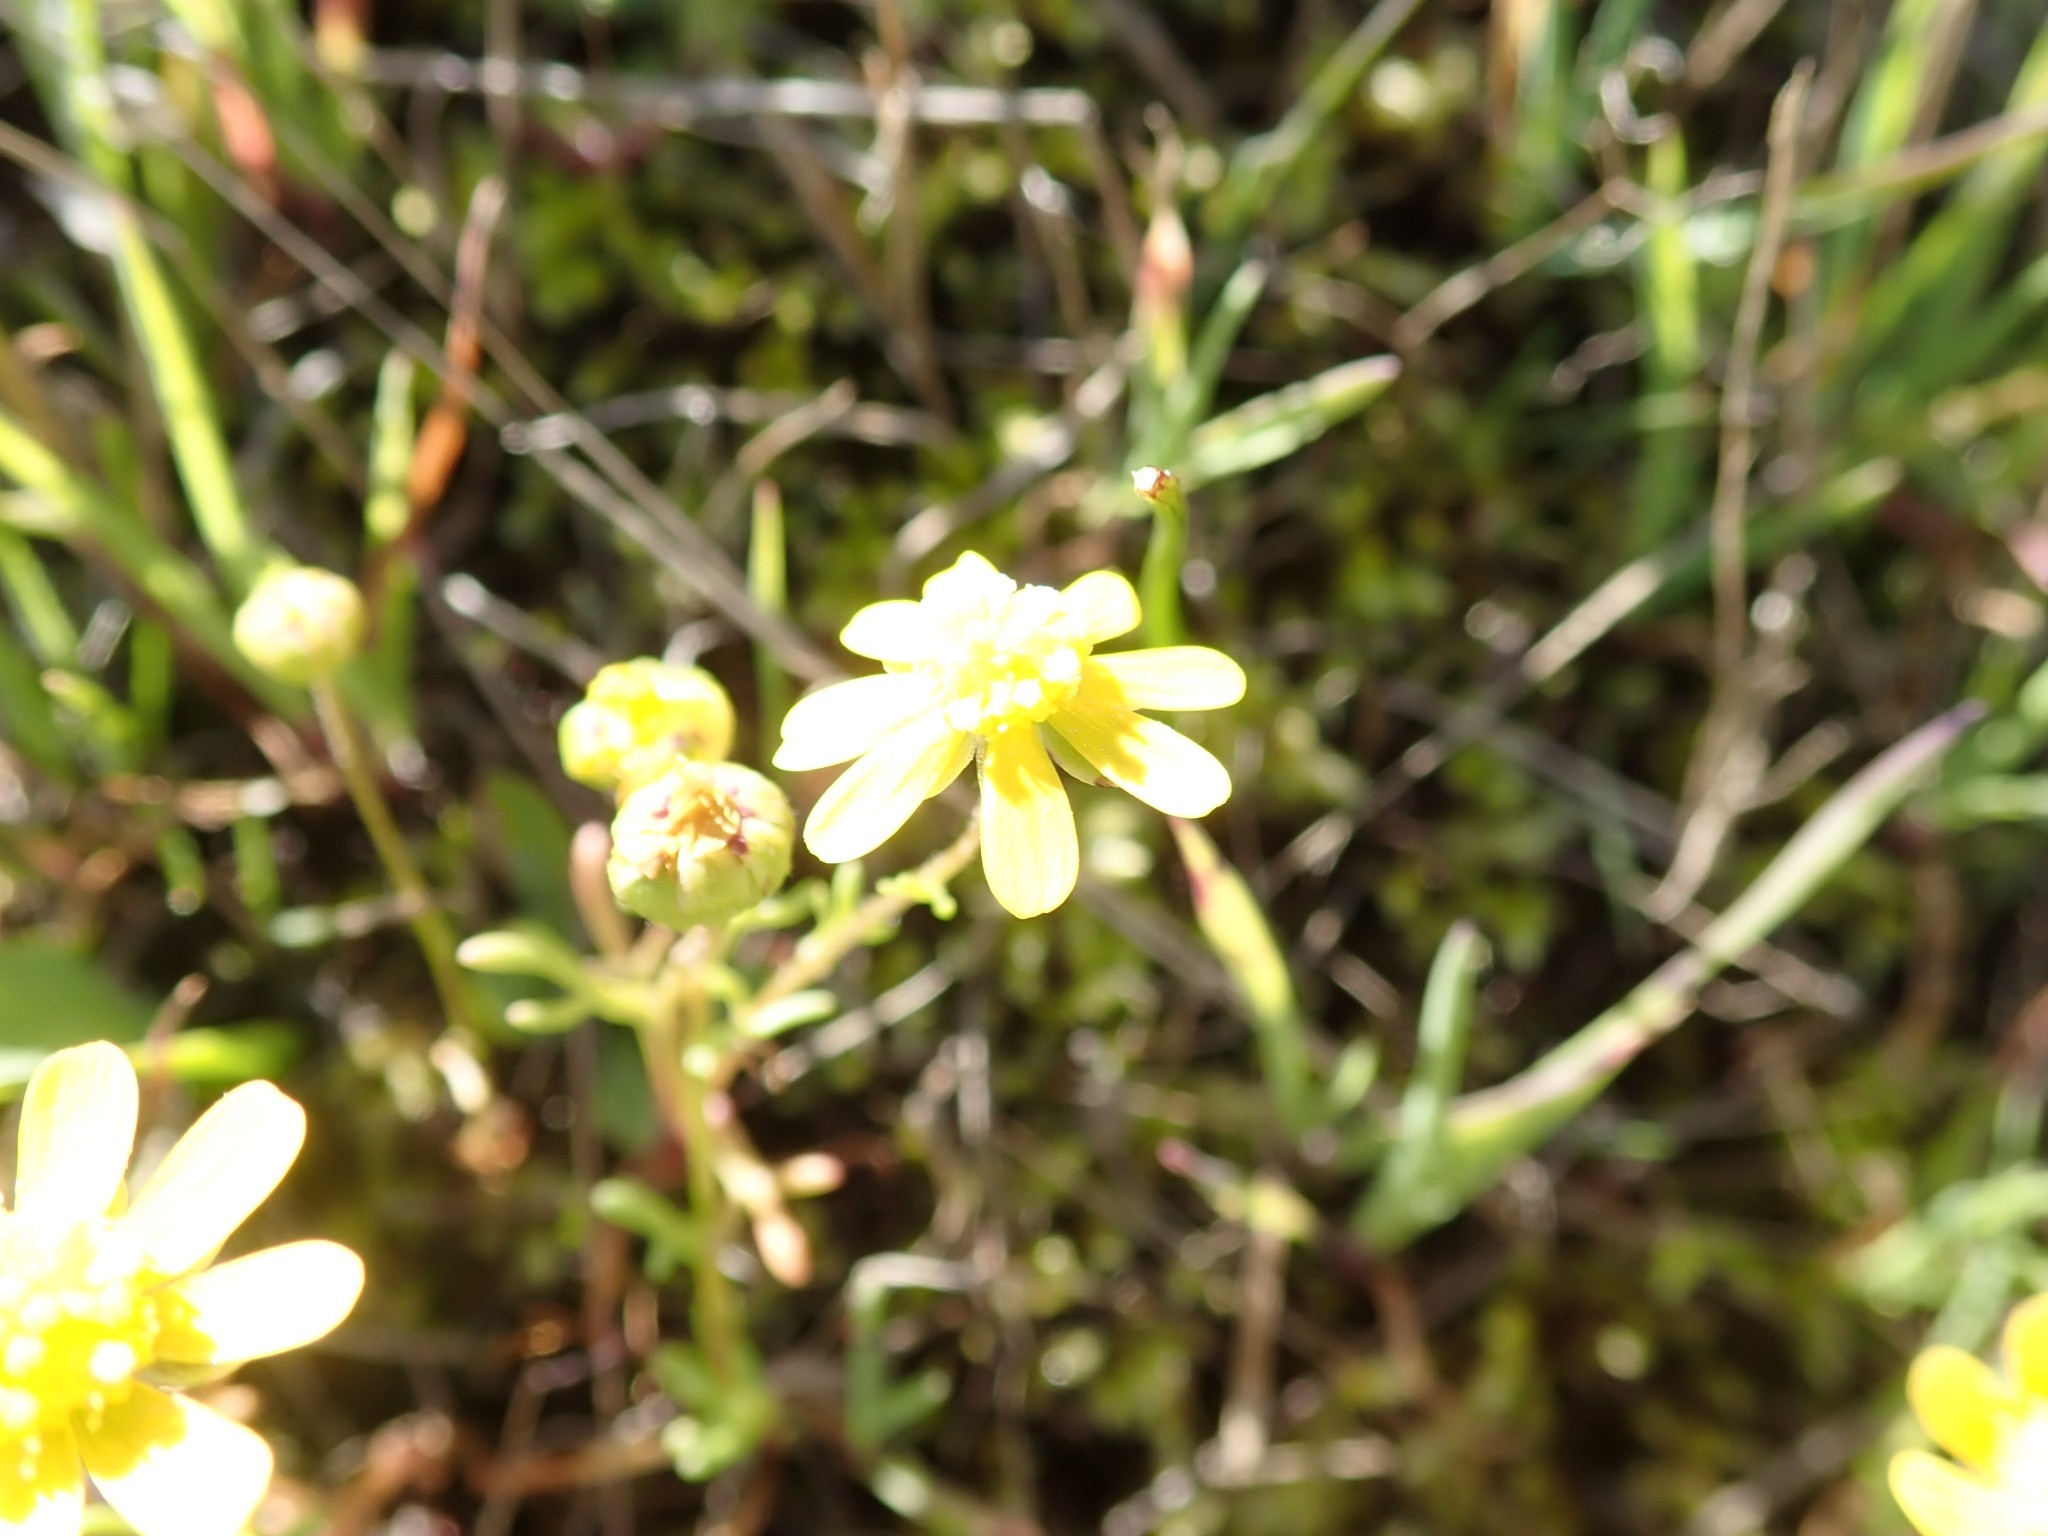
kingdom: Plantae
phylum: Tracheophyta
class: Magnoliopsida
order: Asterales
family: Asteraceae
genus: Blennosperma
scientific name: Blennosperma nanum
